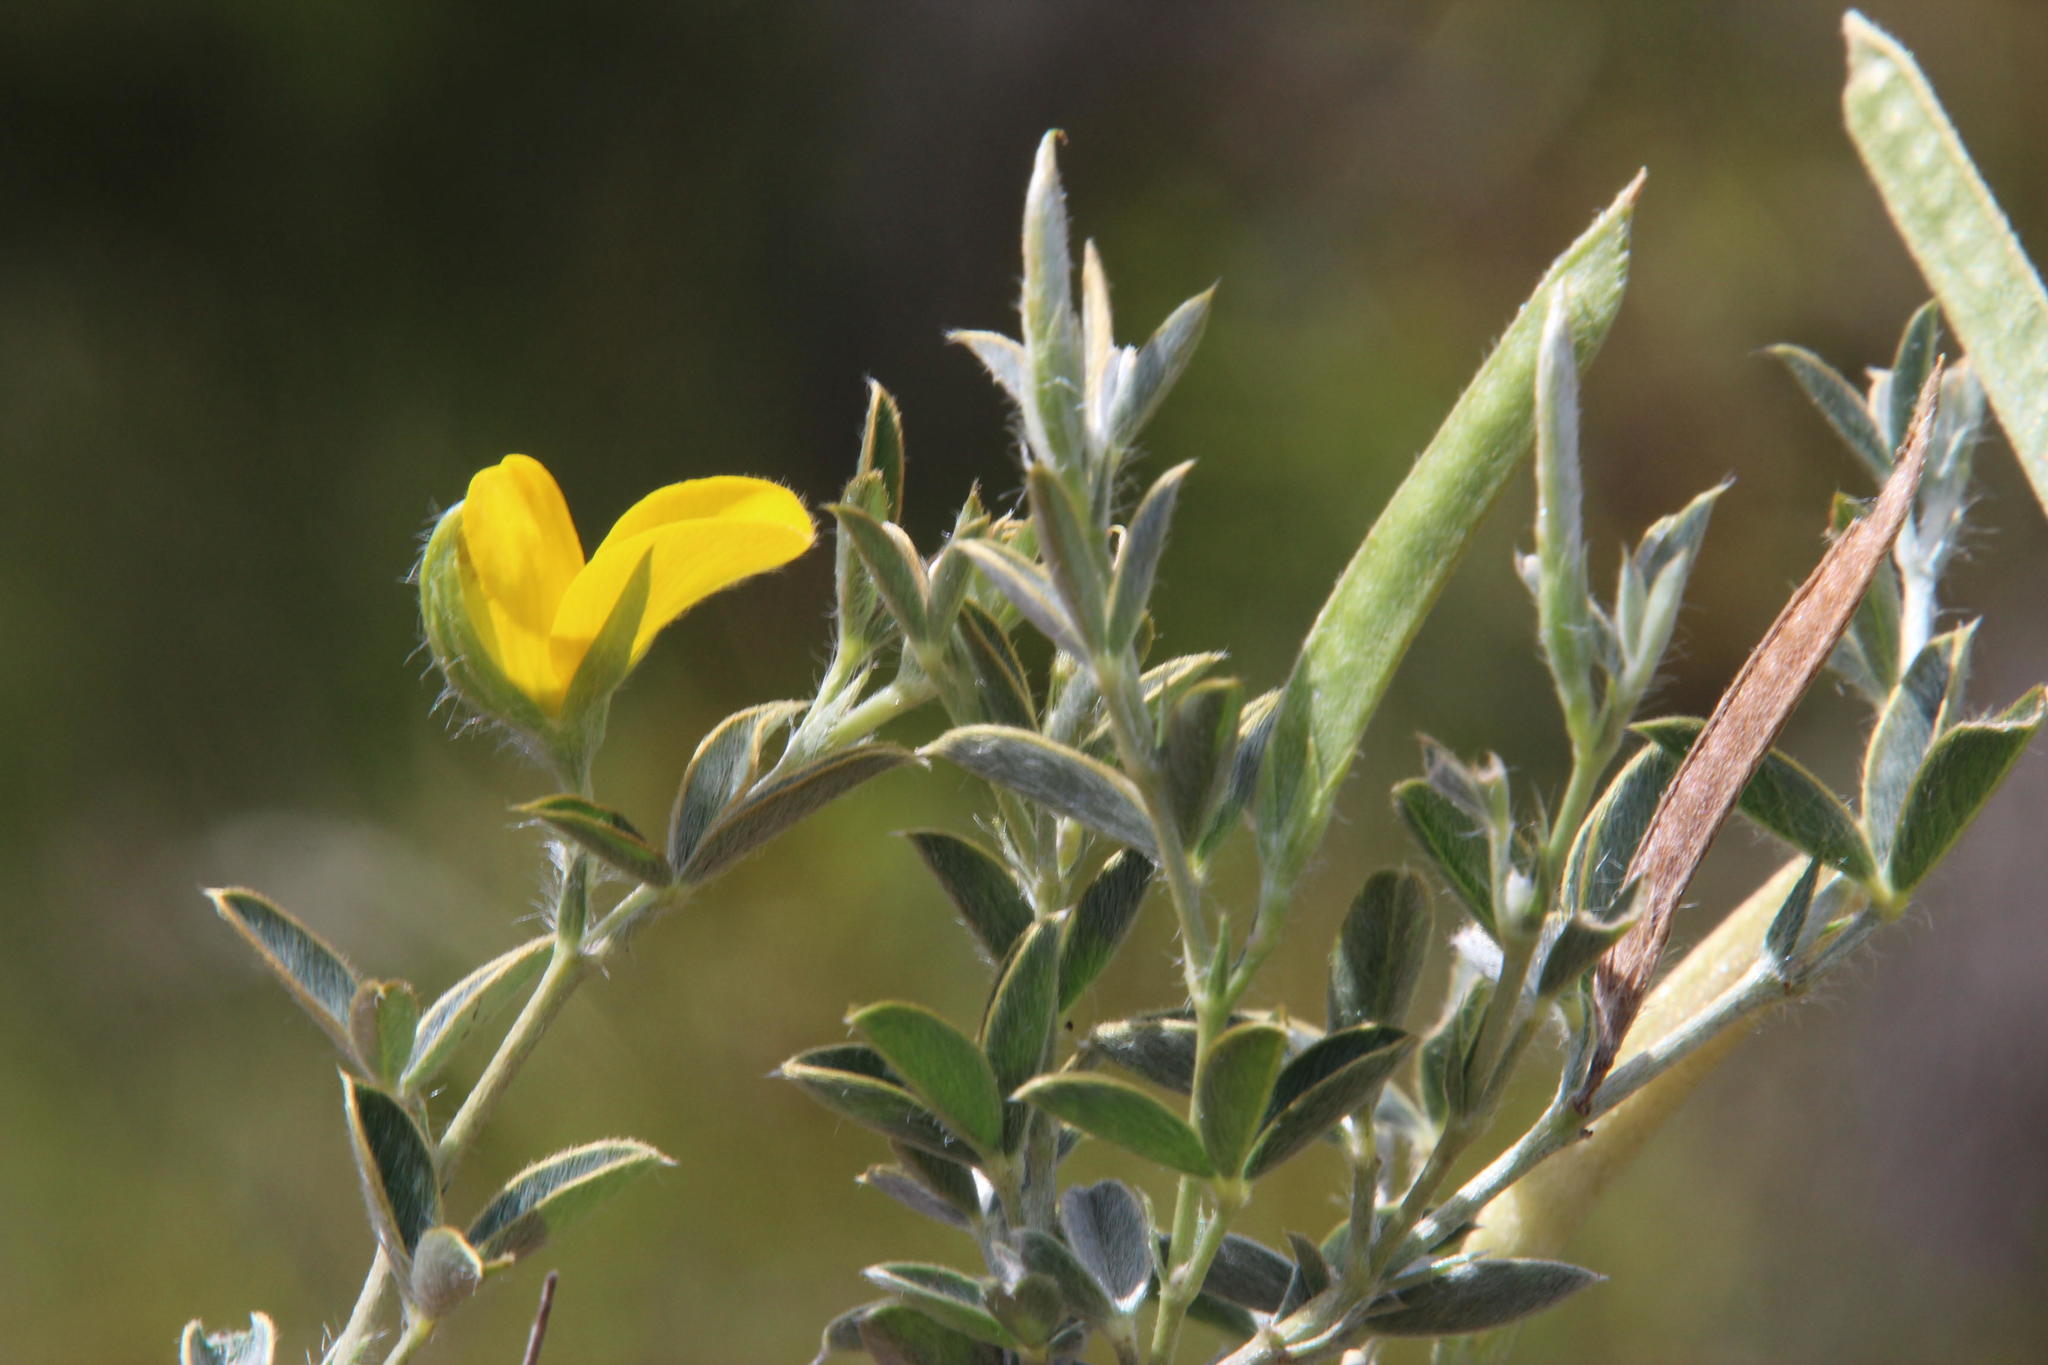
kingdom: Plantae
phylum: Tracheophyta
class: Magnoliopsida
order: Fabales
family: Fabaceae
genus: Argyrolobium
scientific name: Argyrolobium collinum
